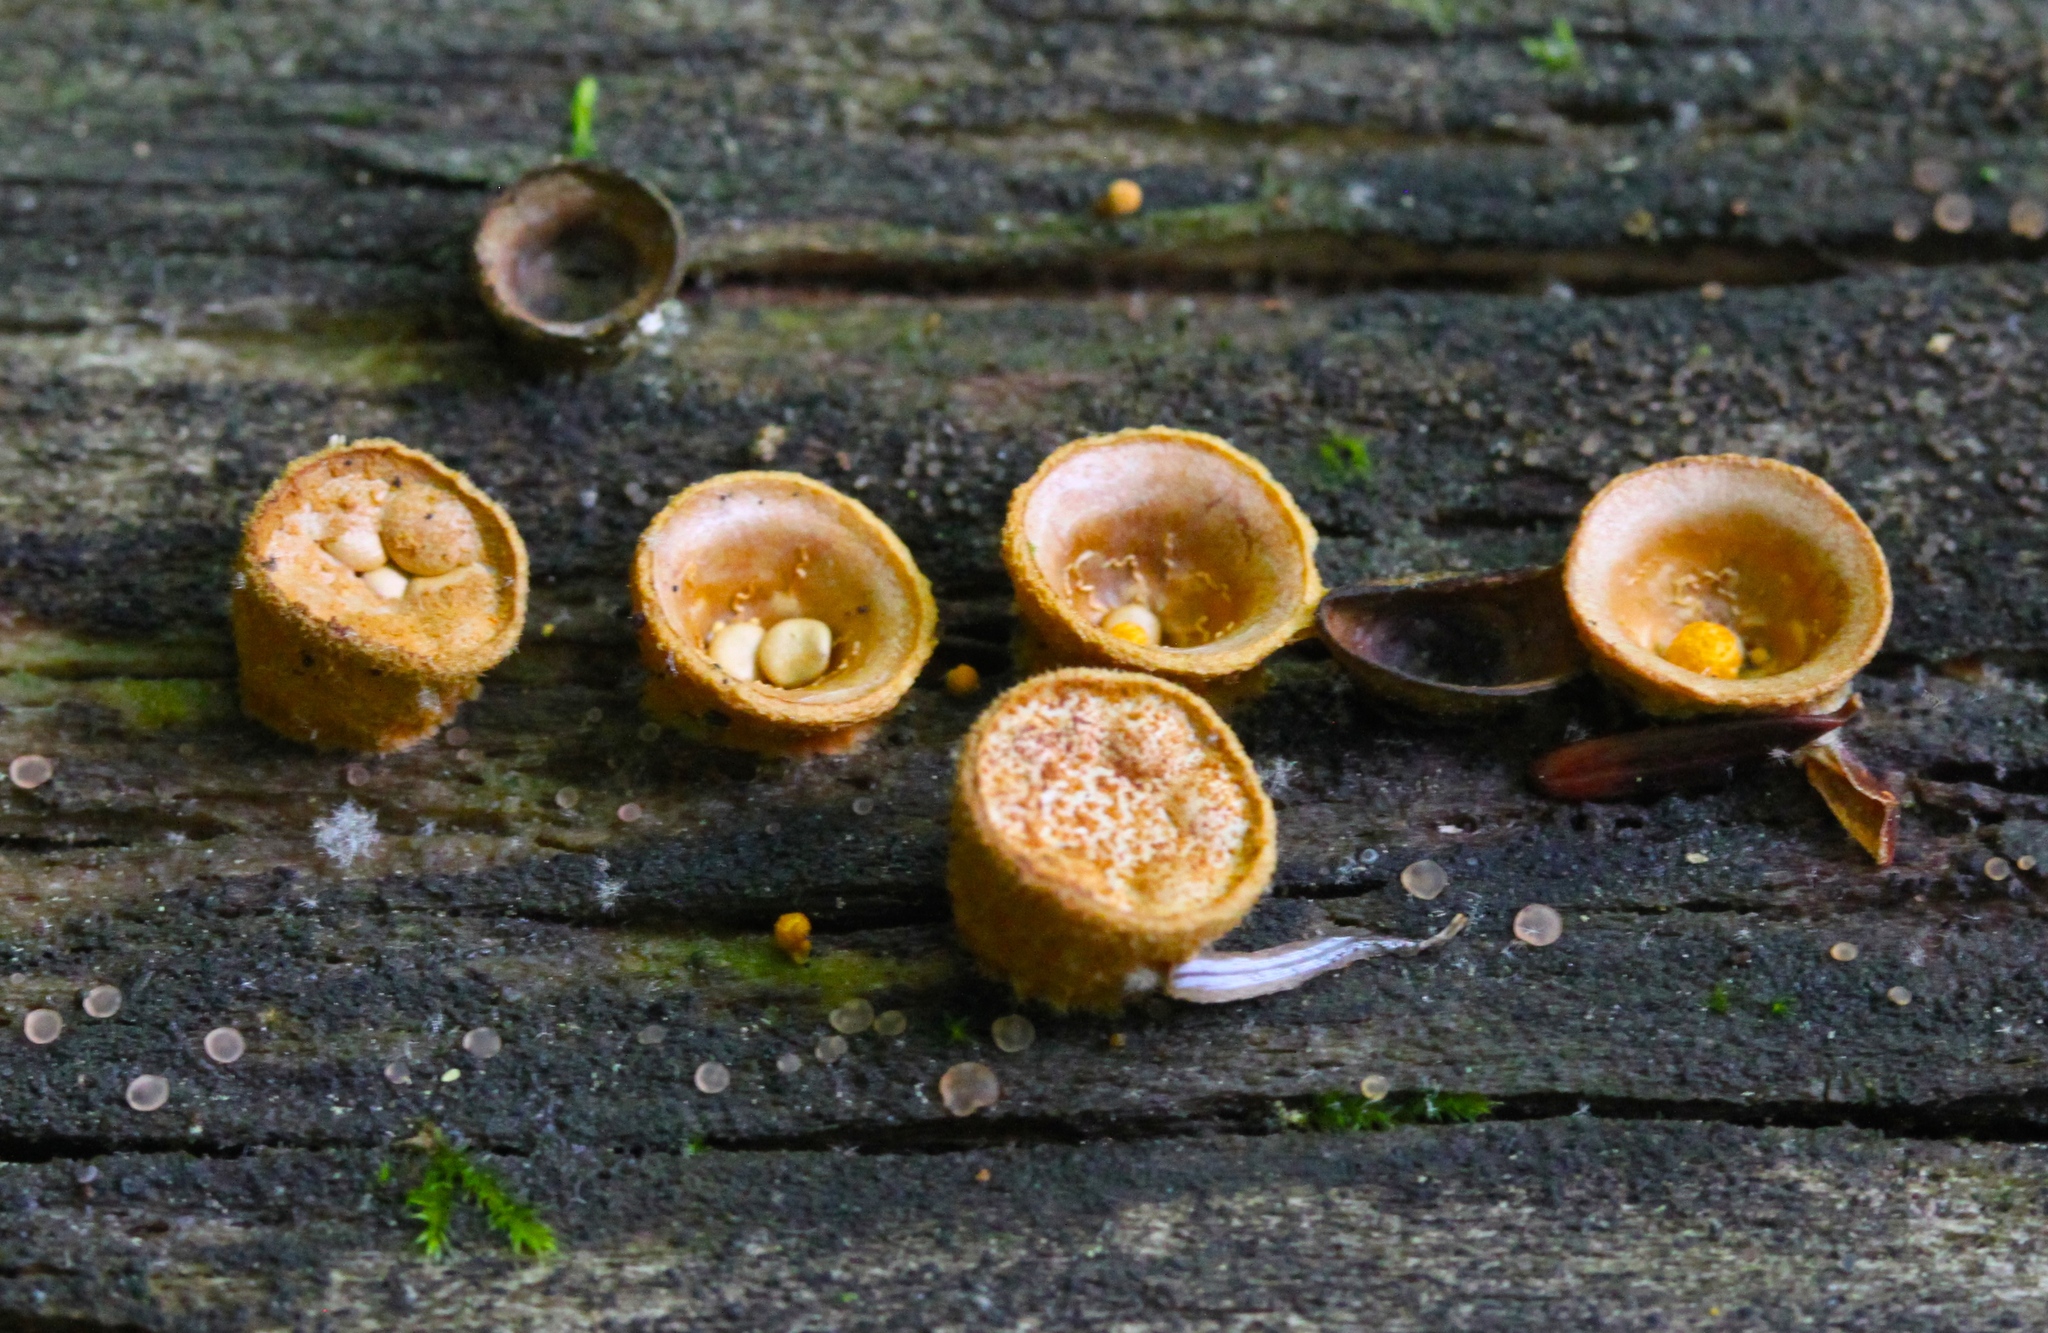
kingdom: Fungi
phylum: Basidiomycota
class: Agaricomycetes
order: Agaricales
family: Nidulariaceae
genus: Crucibulum
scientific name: Crucibulum laeve
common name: Common bird's nest
